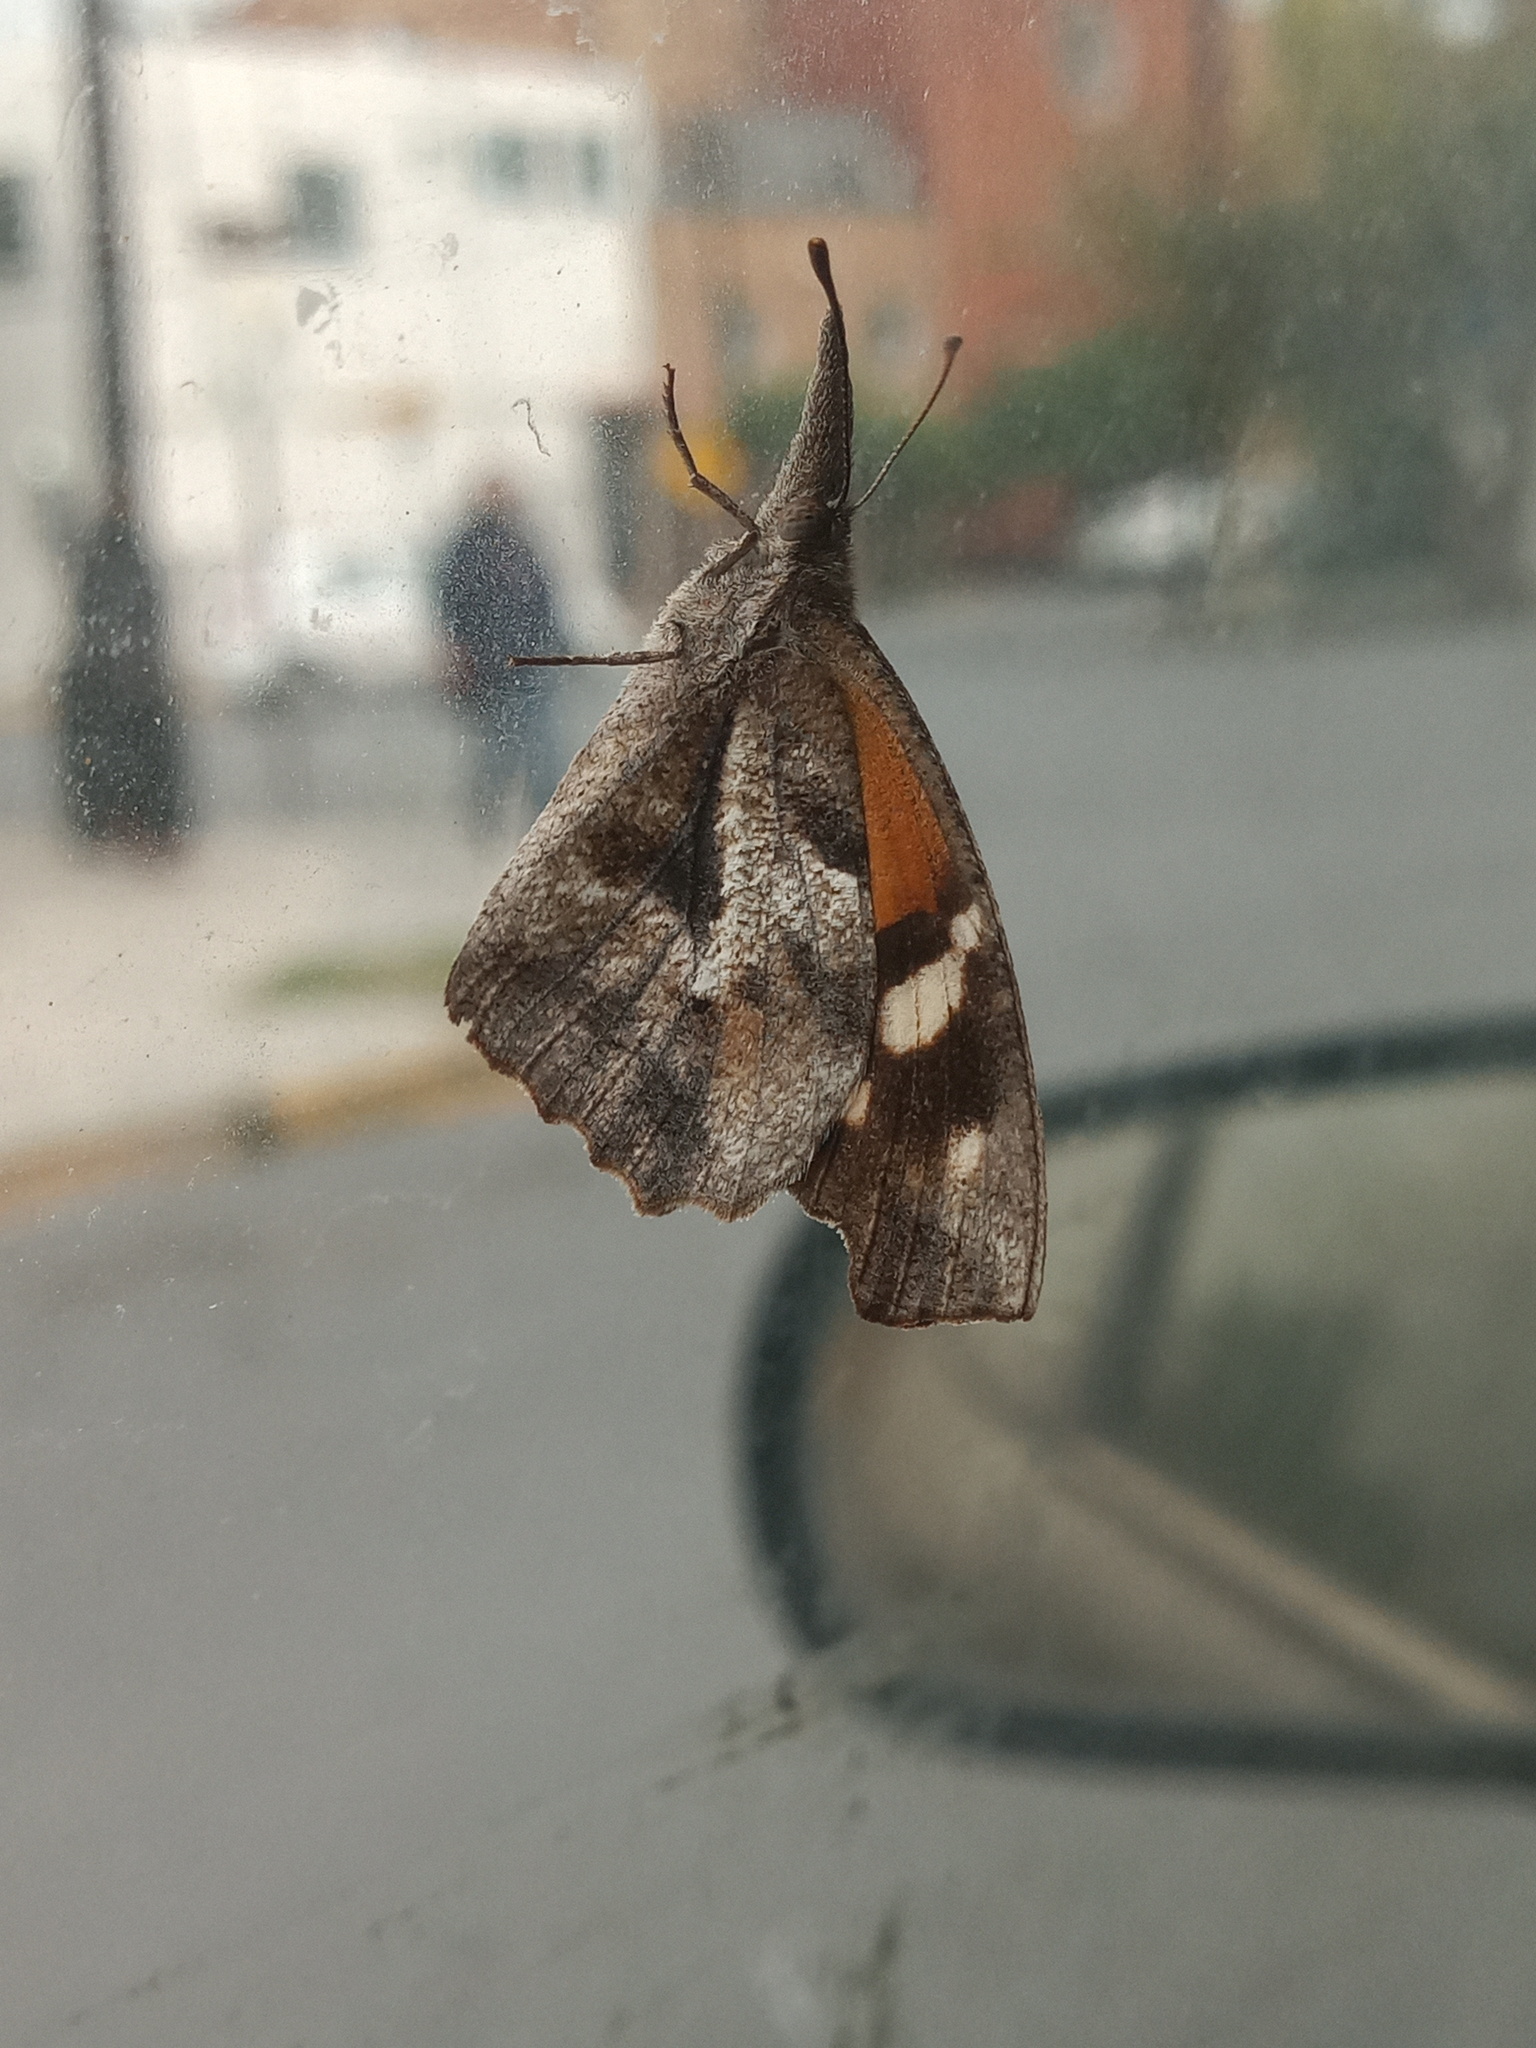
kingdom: Animalia
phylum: Arthropoda
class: Insecta
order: Lepidoptera
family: Nymphalidae
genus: Libytheana
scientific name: Libytheana carinenta
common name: American snout
